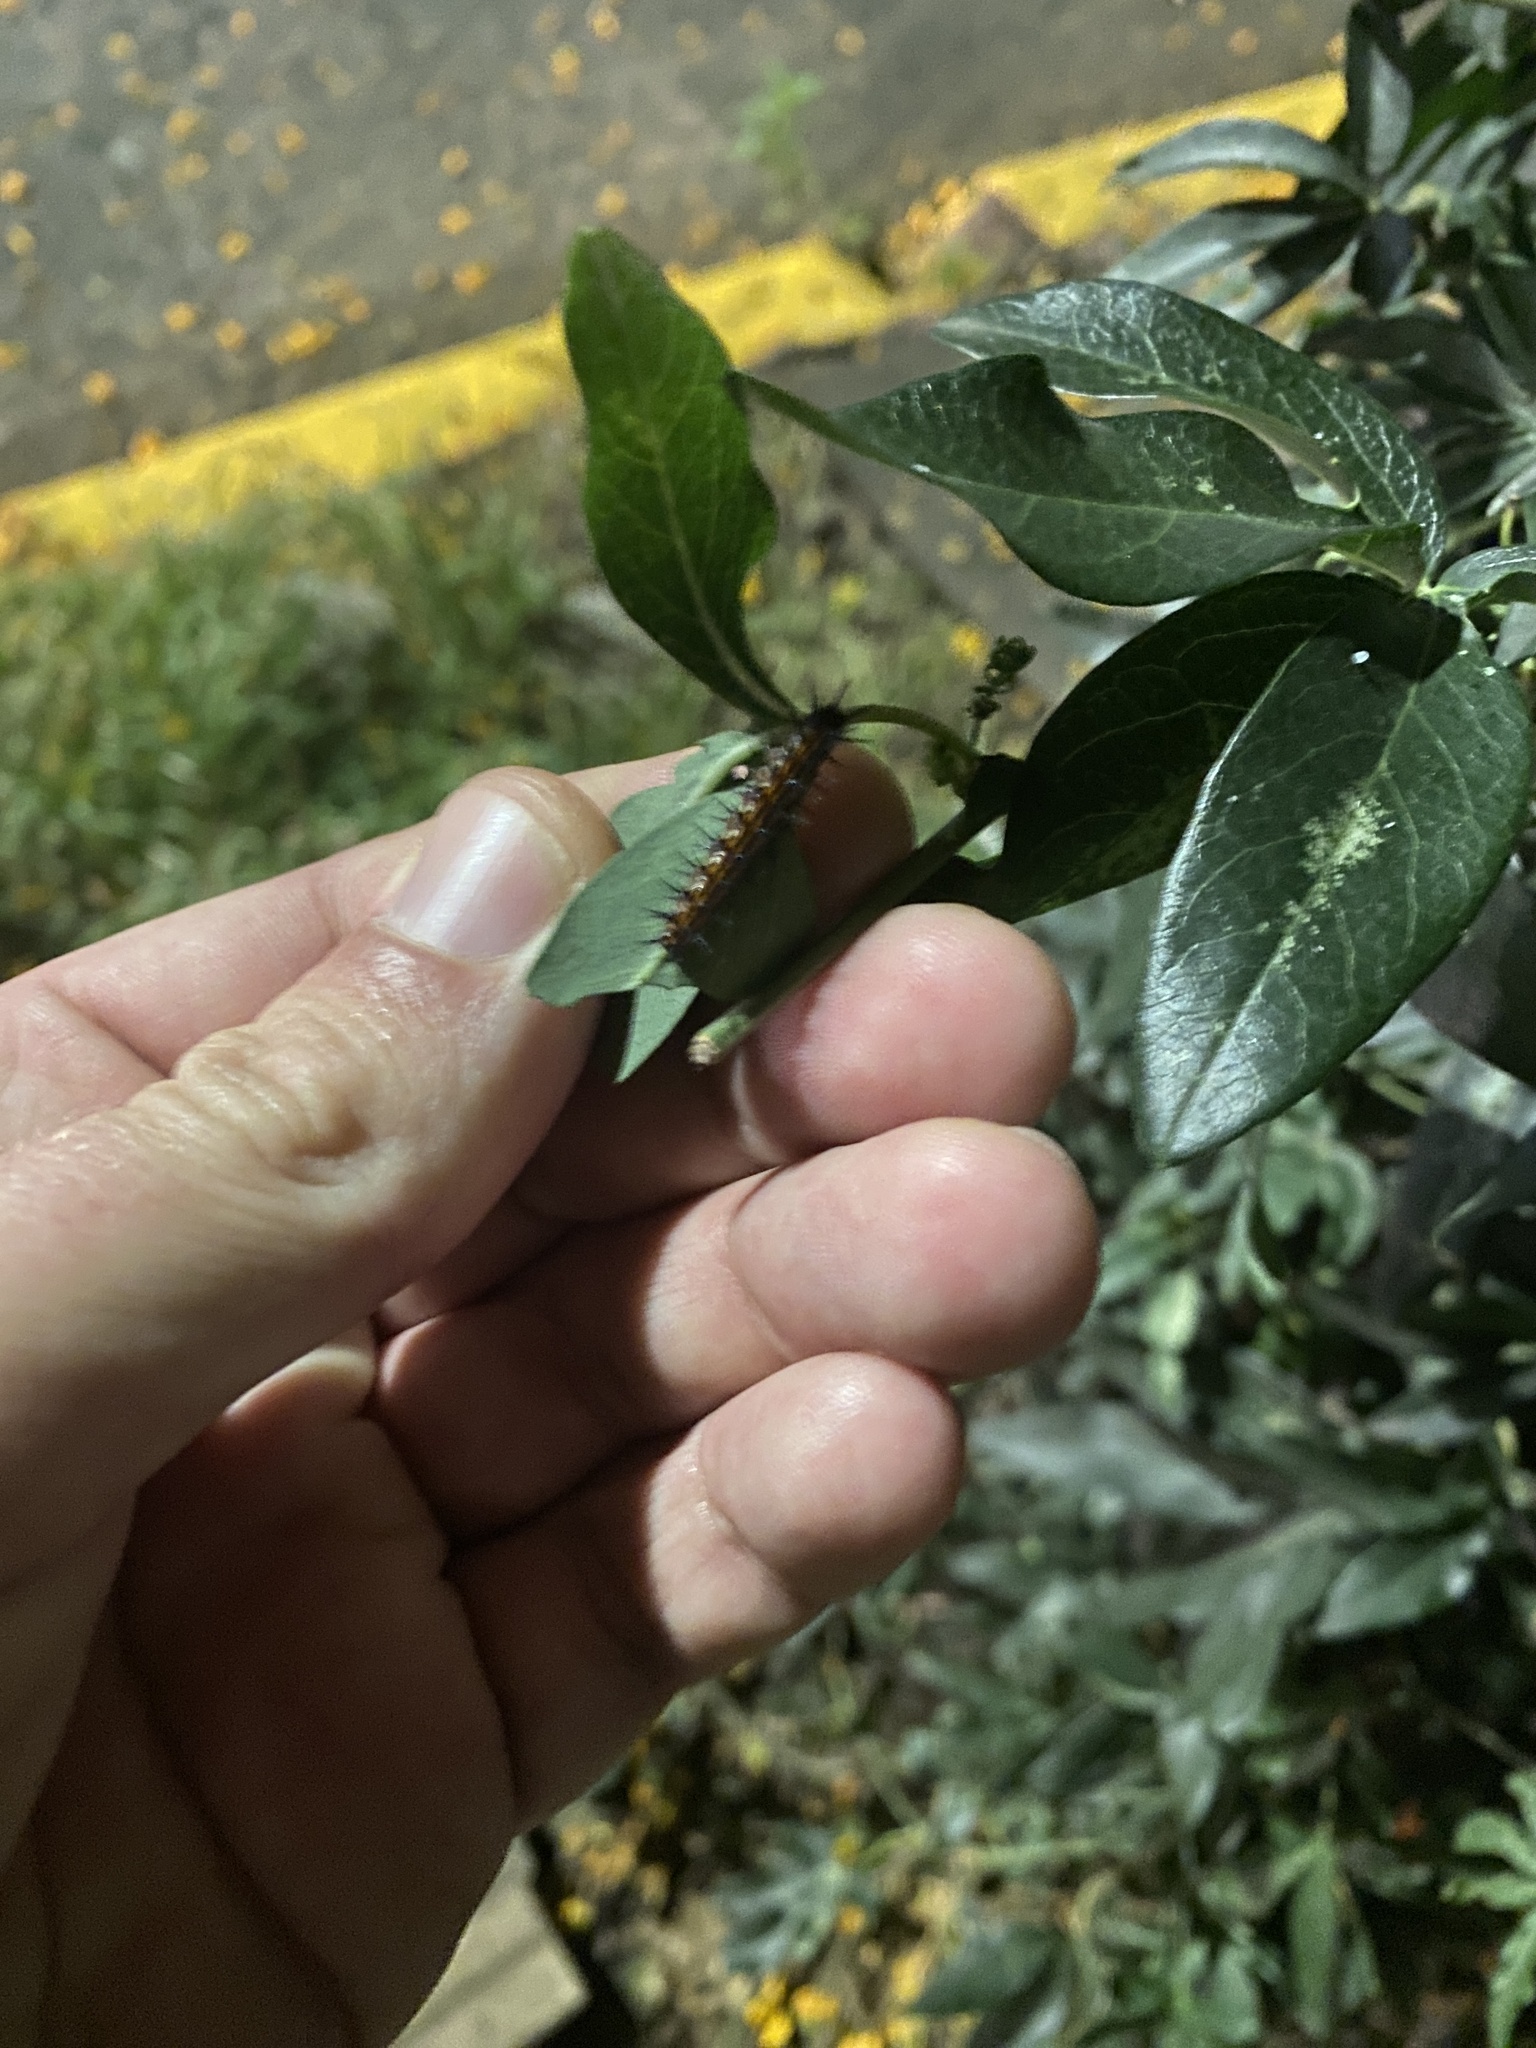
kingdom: Animalia
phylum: Arthropoda
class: Insecta
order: Lepidoptera
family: Nymphalidae
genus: Dione
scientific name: Dione vanillae
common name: Gulf fritillary
